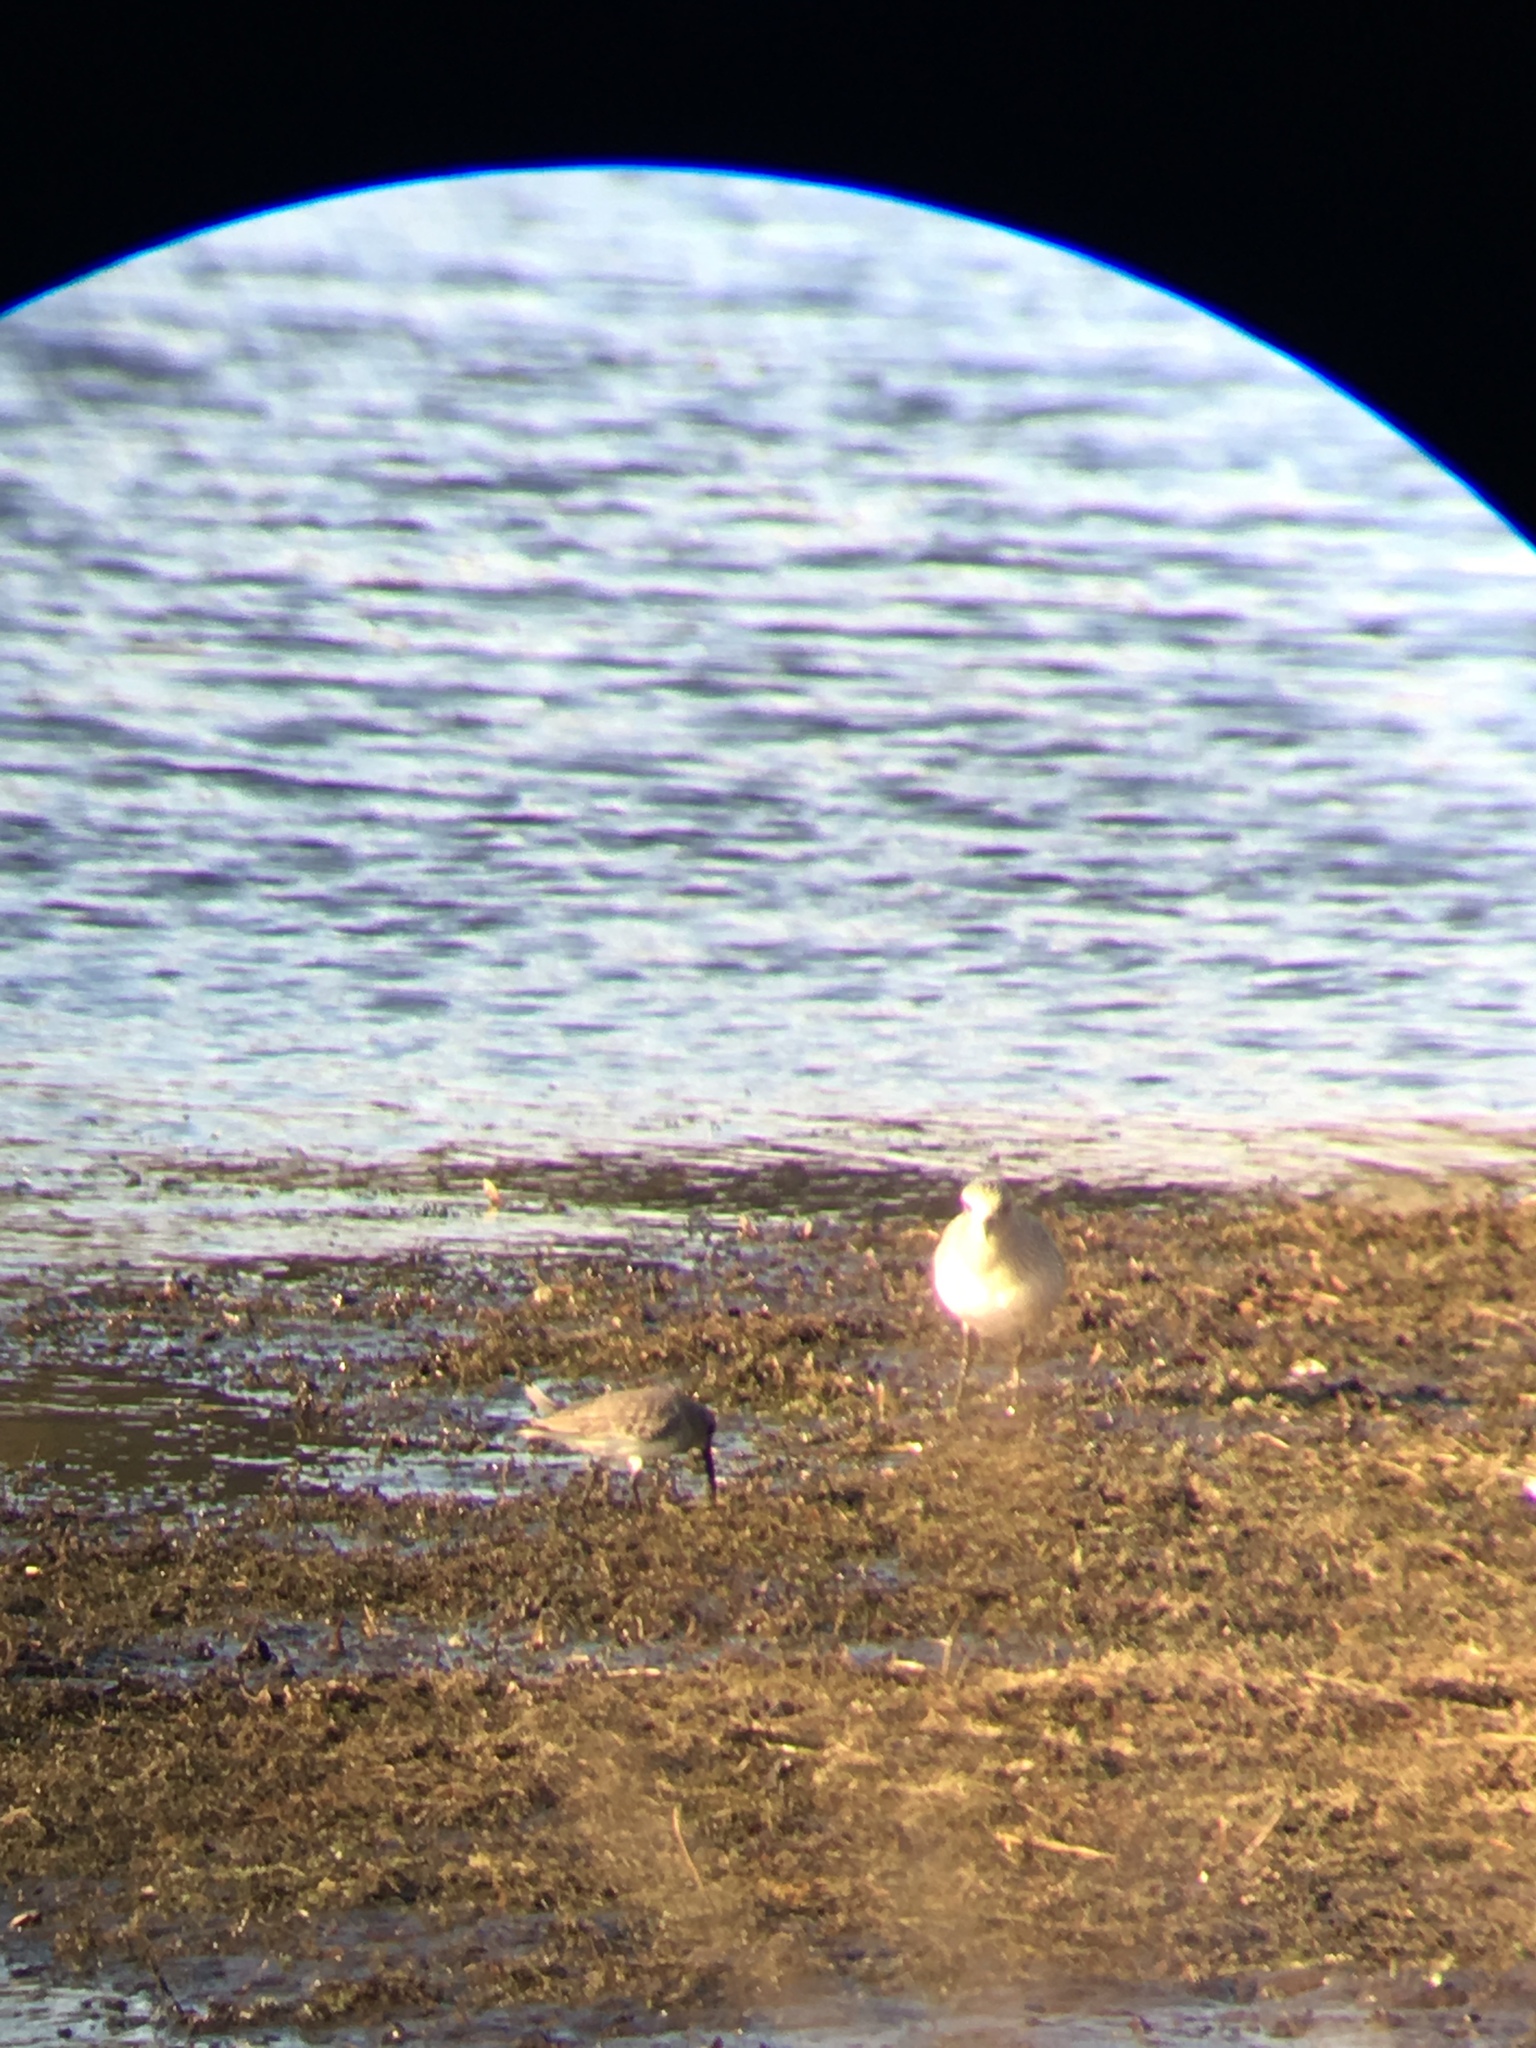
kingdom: Animalia
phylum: Chordata
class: Aves
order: Charadriiformes
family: Charadriidae
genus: Pluvialis
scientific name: Pluvialis squatarola
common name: Grey plover
